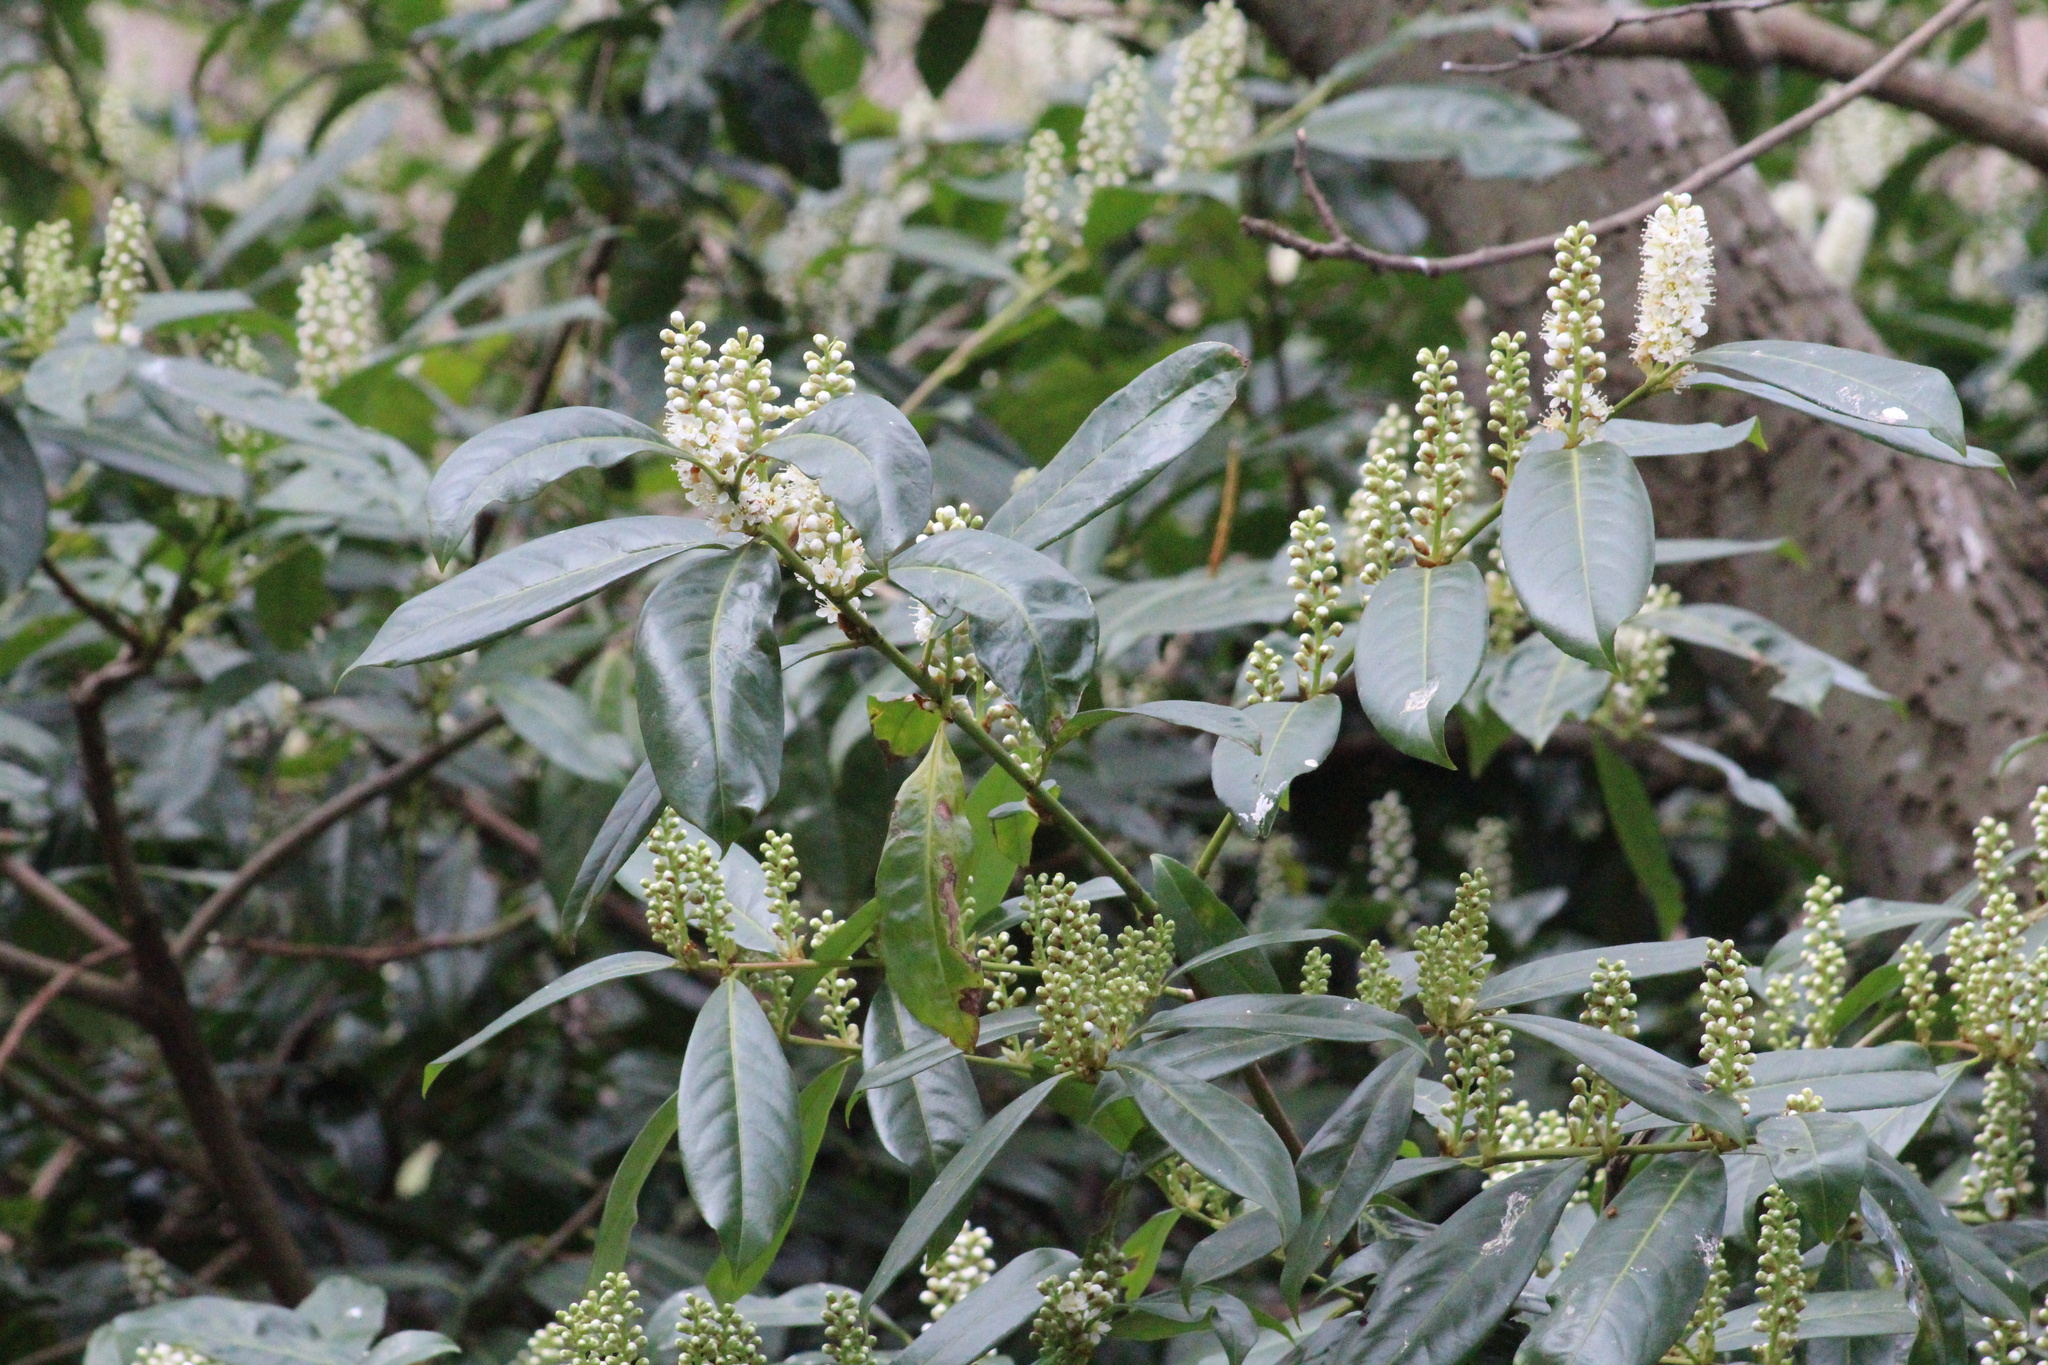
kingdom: Plantae
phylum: Tracheophyta
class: Magnoliopsida
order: Rosales
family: Rosaceae
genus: Prunus
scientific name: Prunus laurocerasus
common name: Cherry laurel
